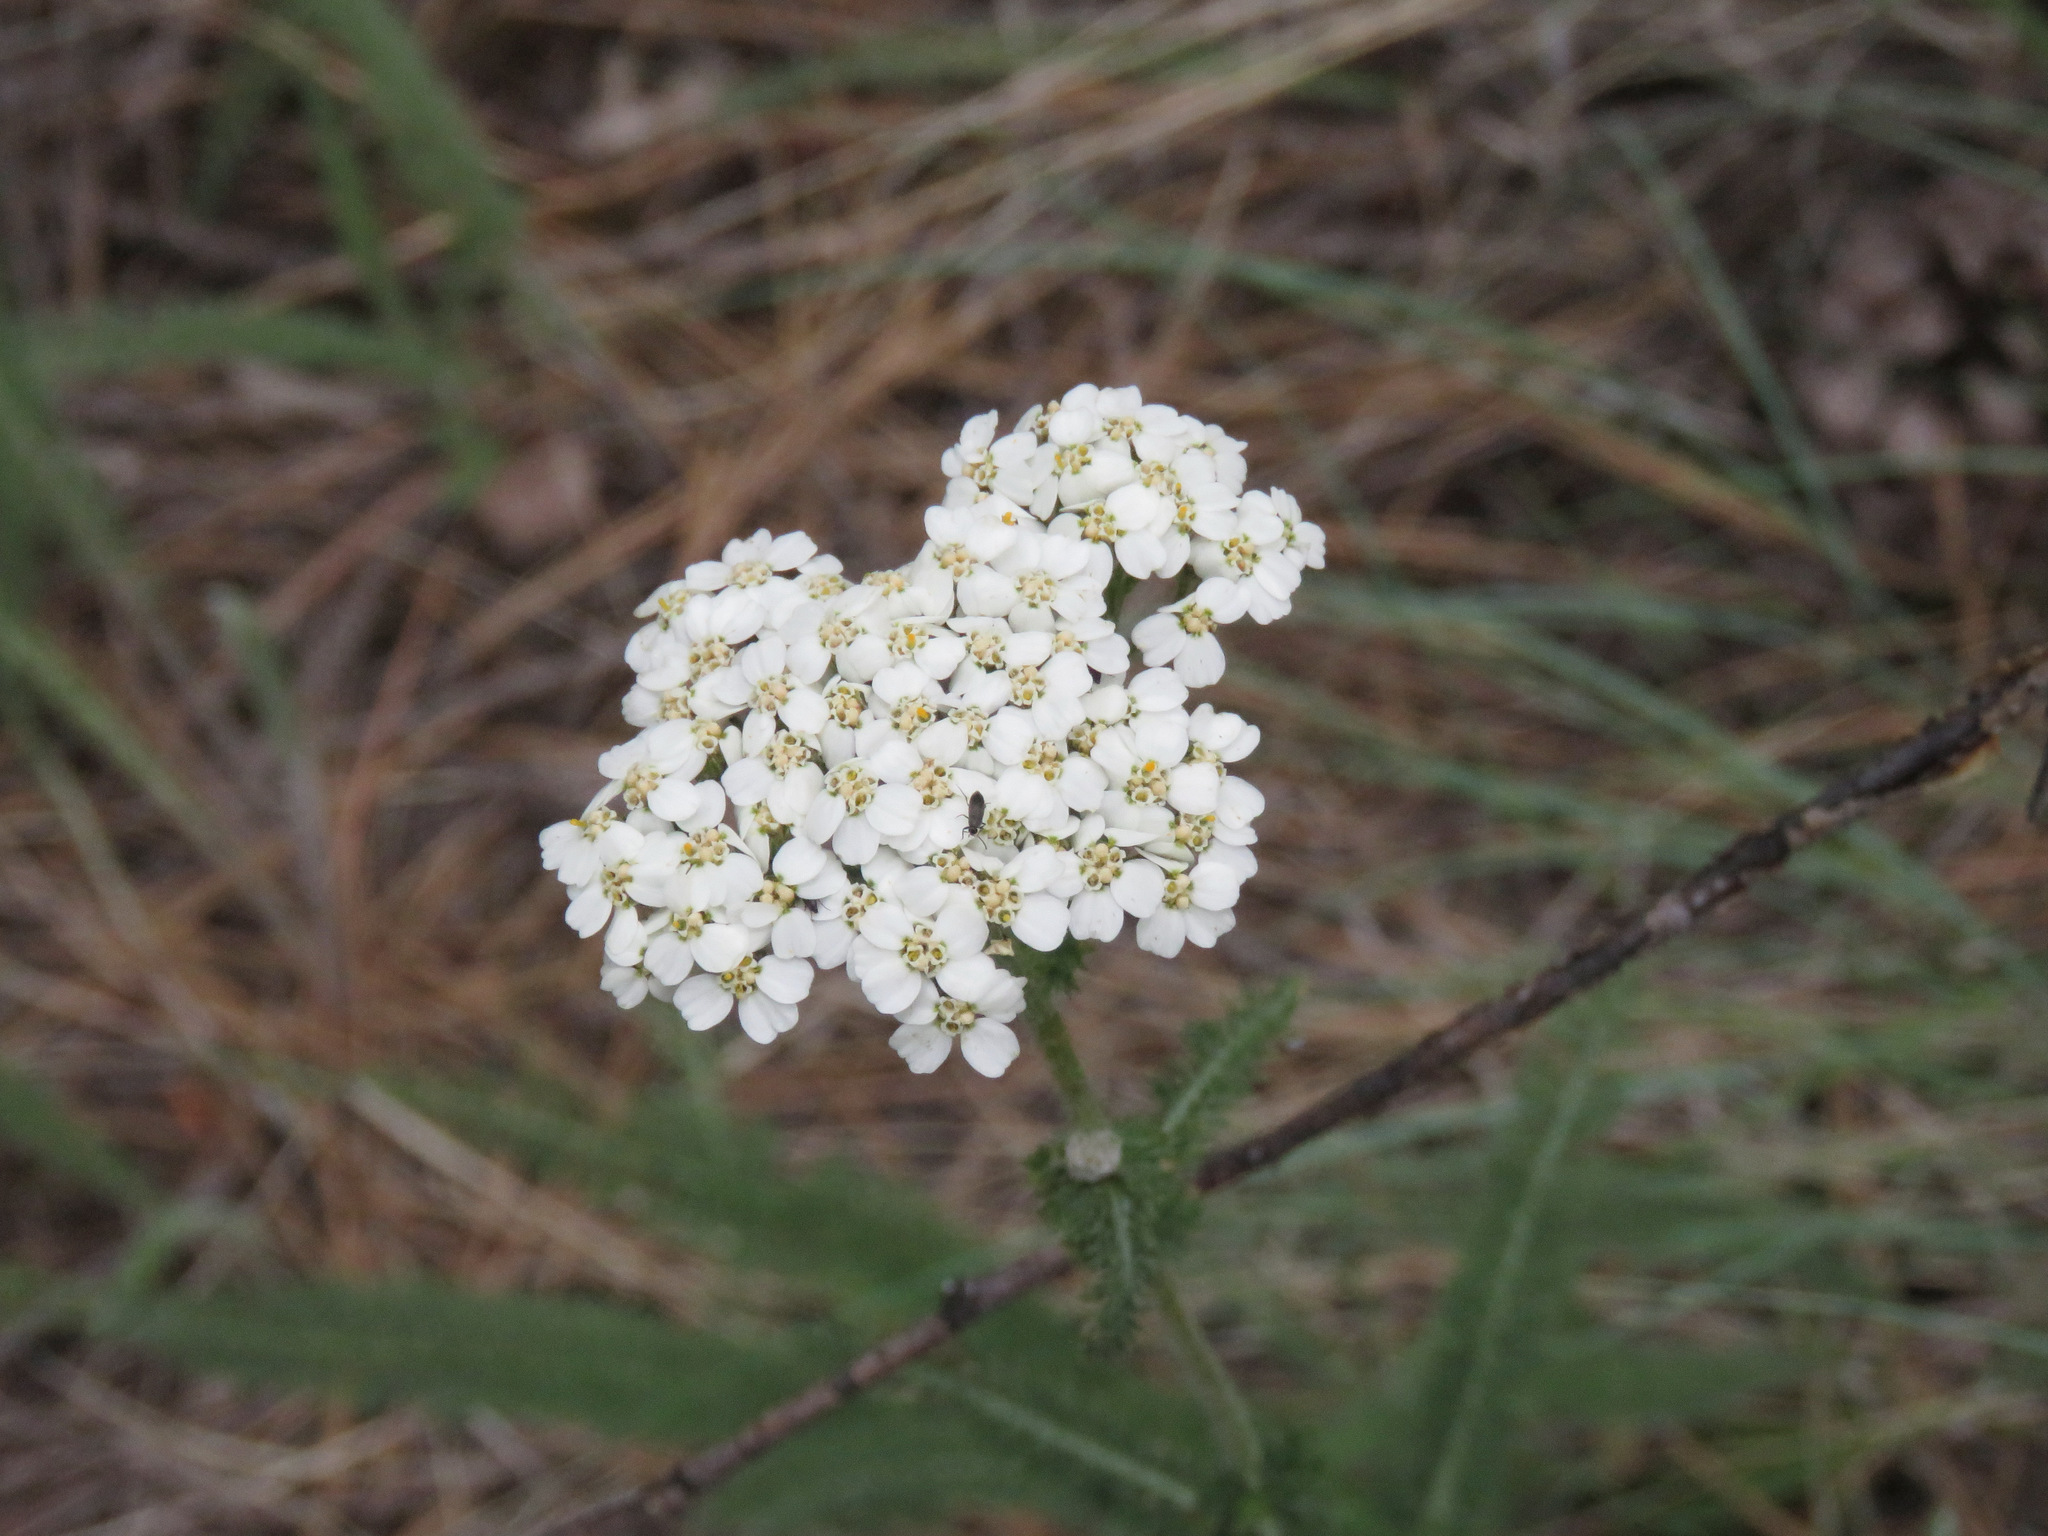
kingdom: Plantae
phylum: Tracheophyta
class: Magnoliopsida
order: Asterales
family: Asteraceae
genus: Achillea
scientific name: Achillea millefolium
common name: Yarrow
